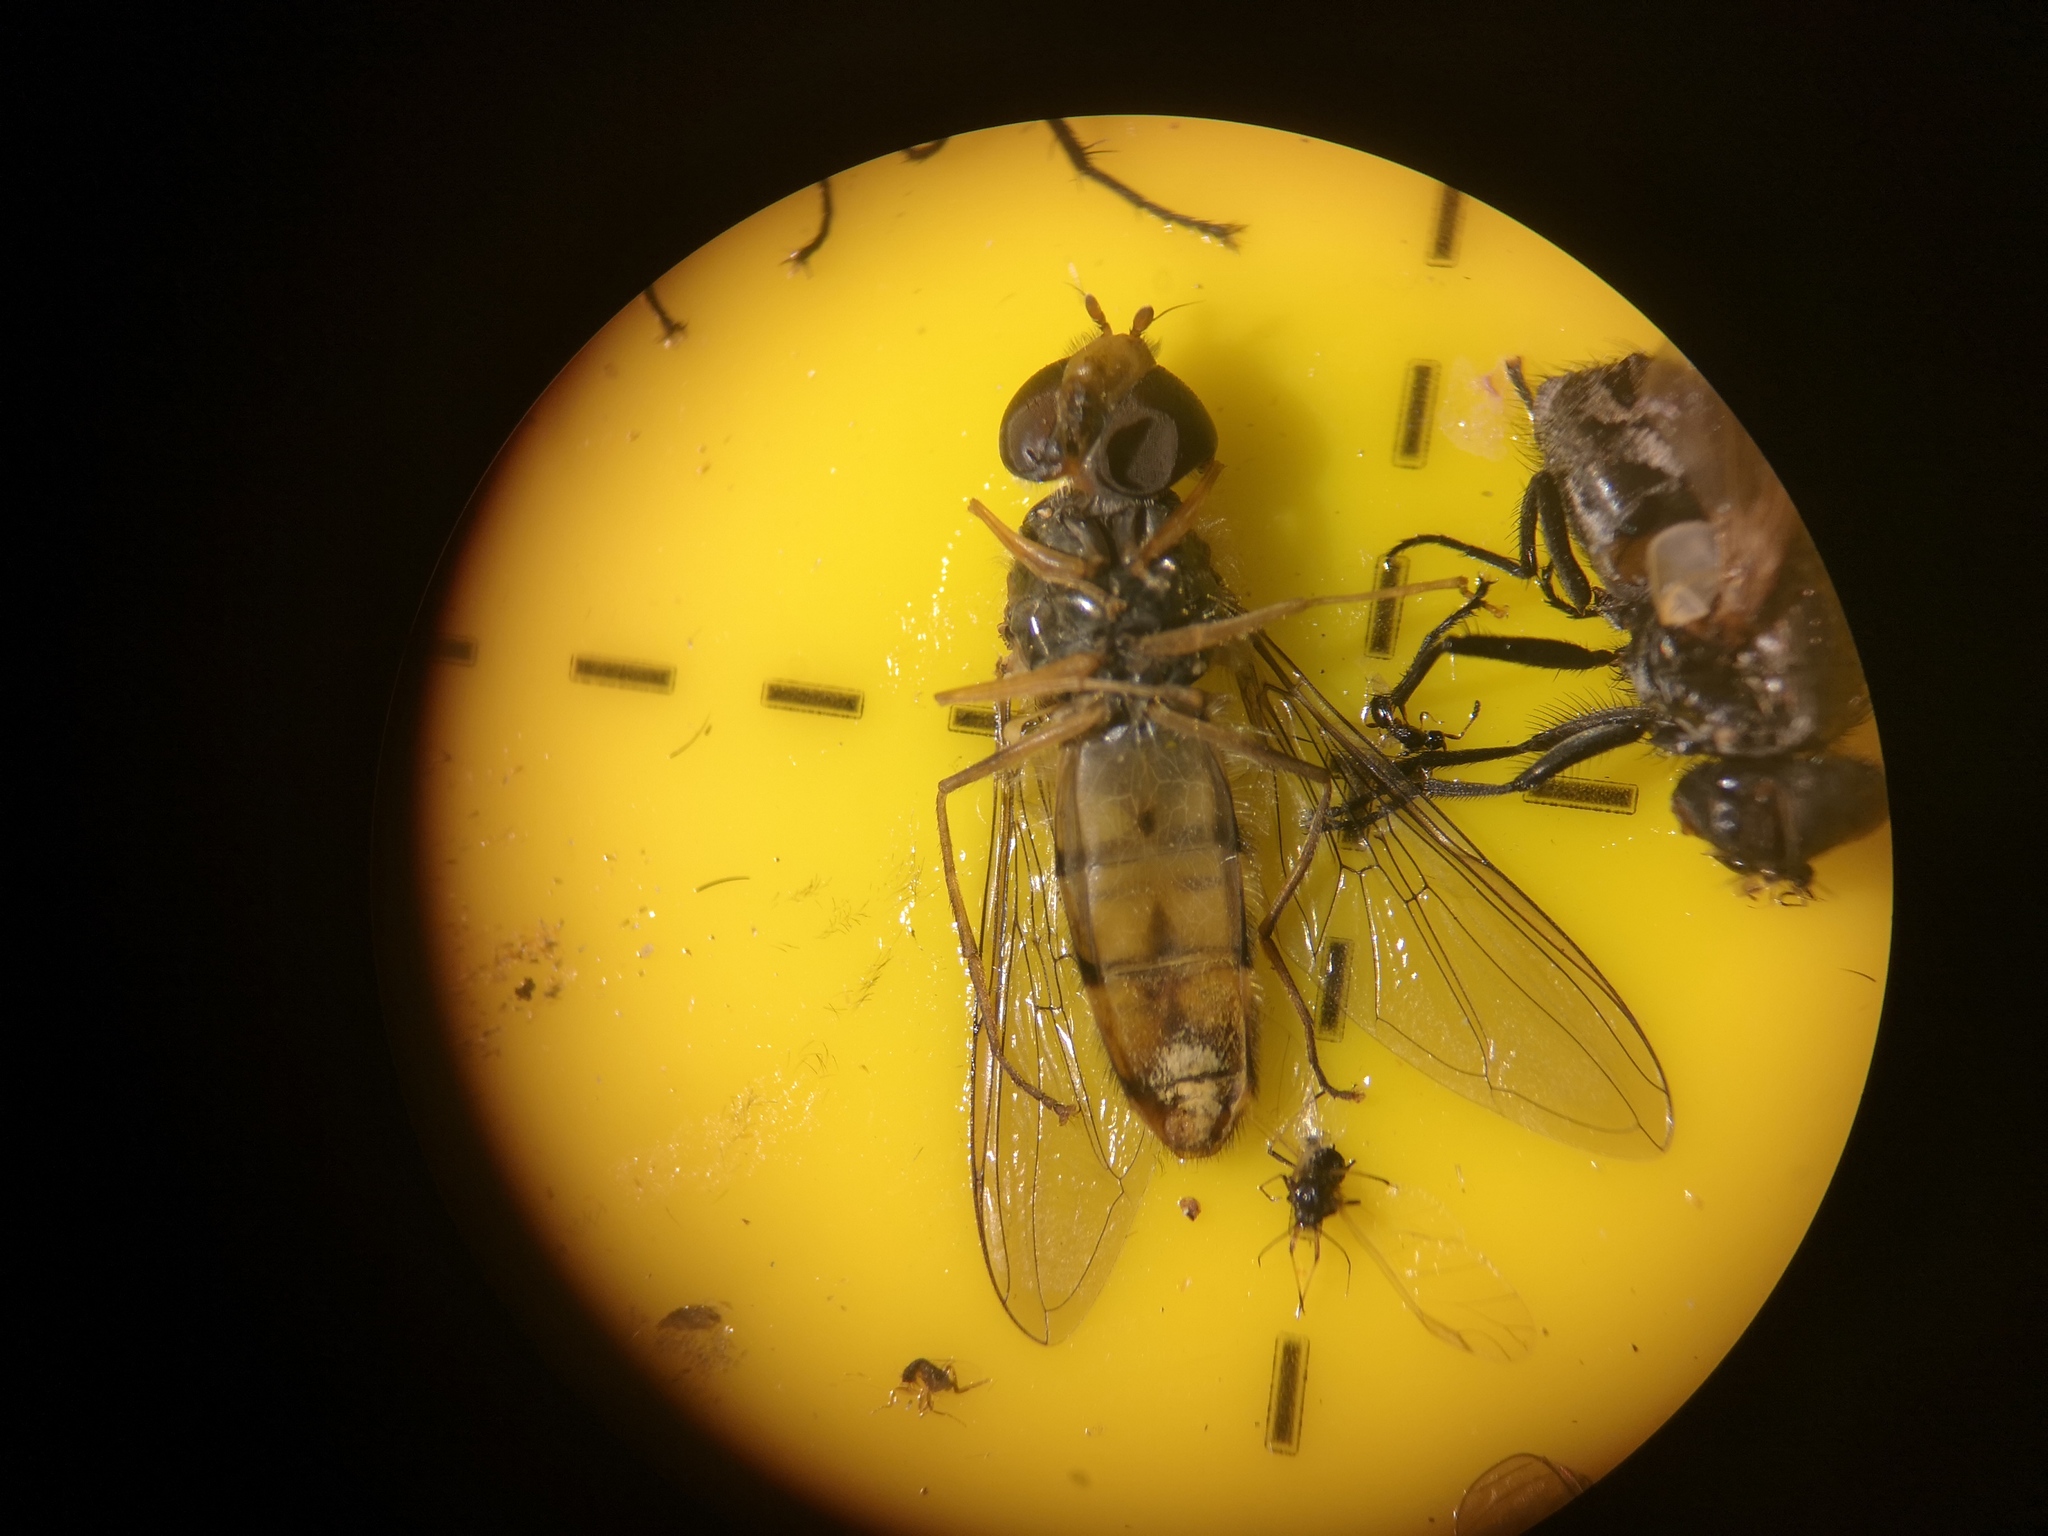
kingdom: Animalia
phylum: Arthropoda
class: Insecta
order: Diptera
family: Syrphidae
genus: Episyrphus
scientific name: Episyrphus balteatus
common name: Marmalade hoverfly
